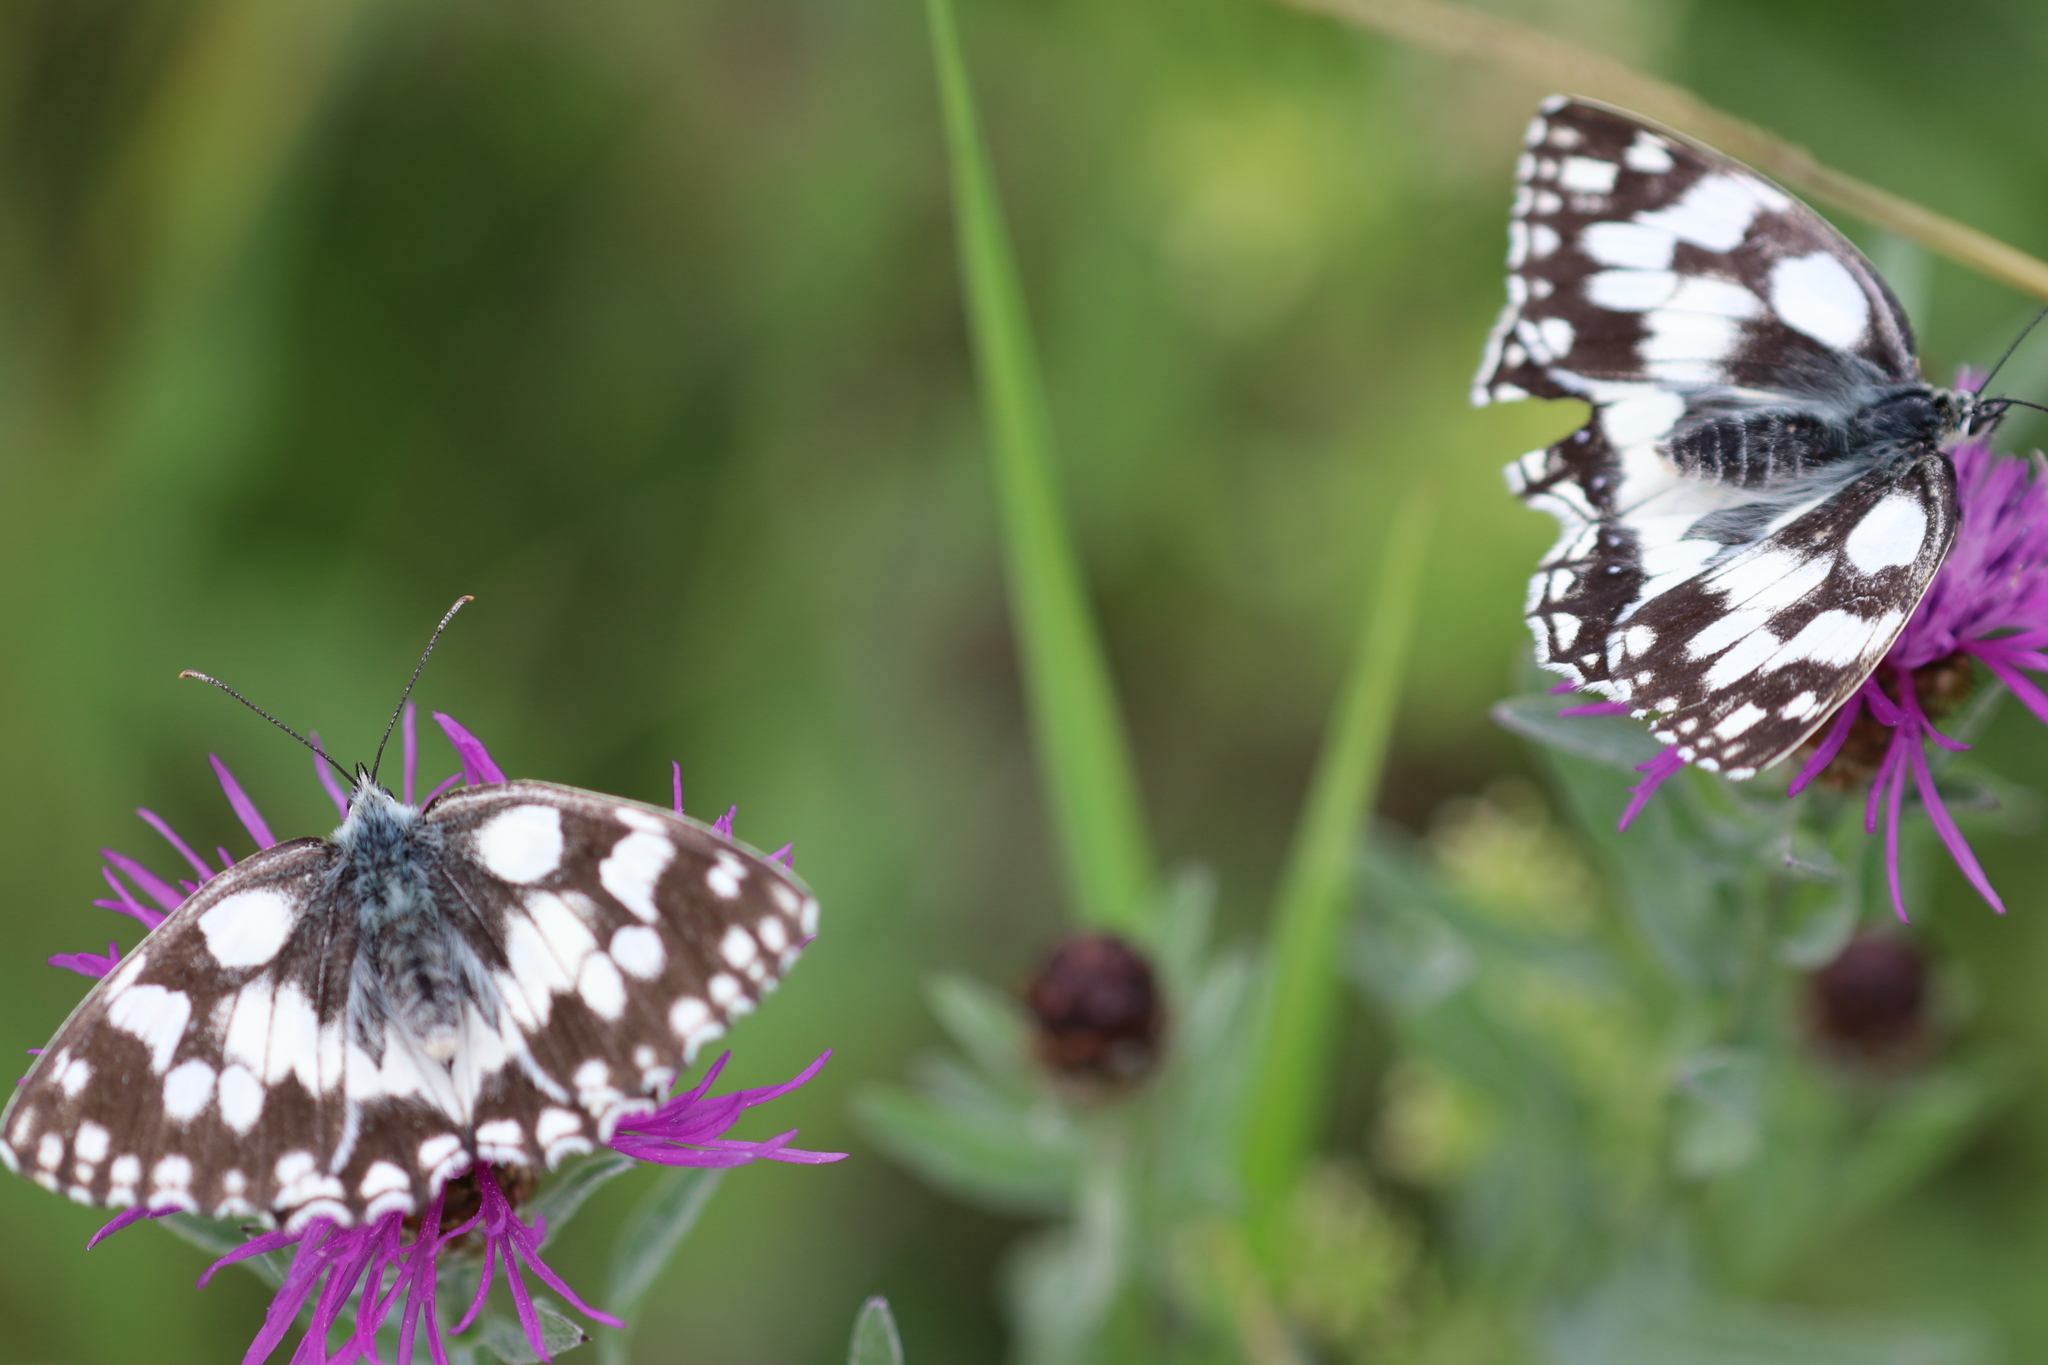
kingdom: Animalia
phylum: Arthropoda
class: Insecta
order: Lepidoptera
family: Nymphalidae
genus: Melanargia
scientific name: Melanargia galathea
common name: Marbled white
